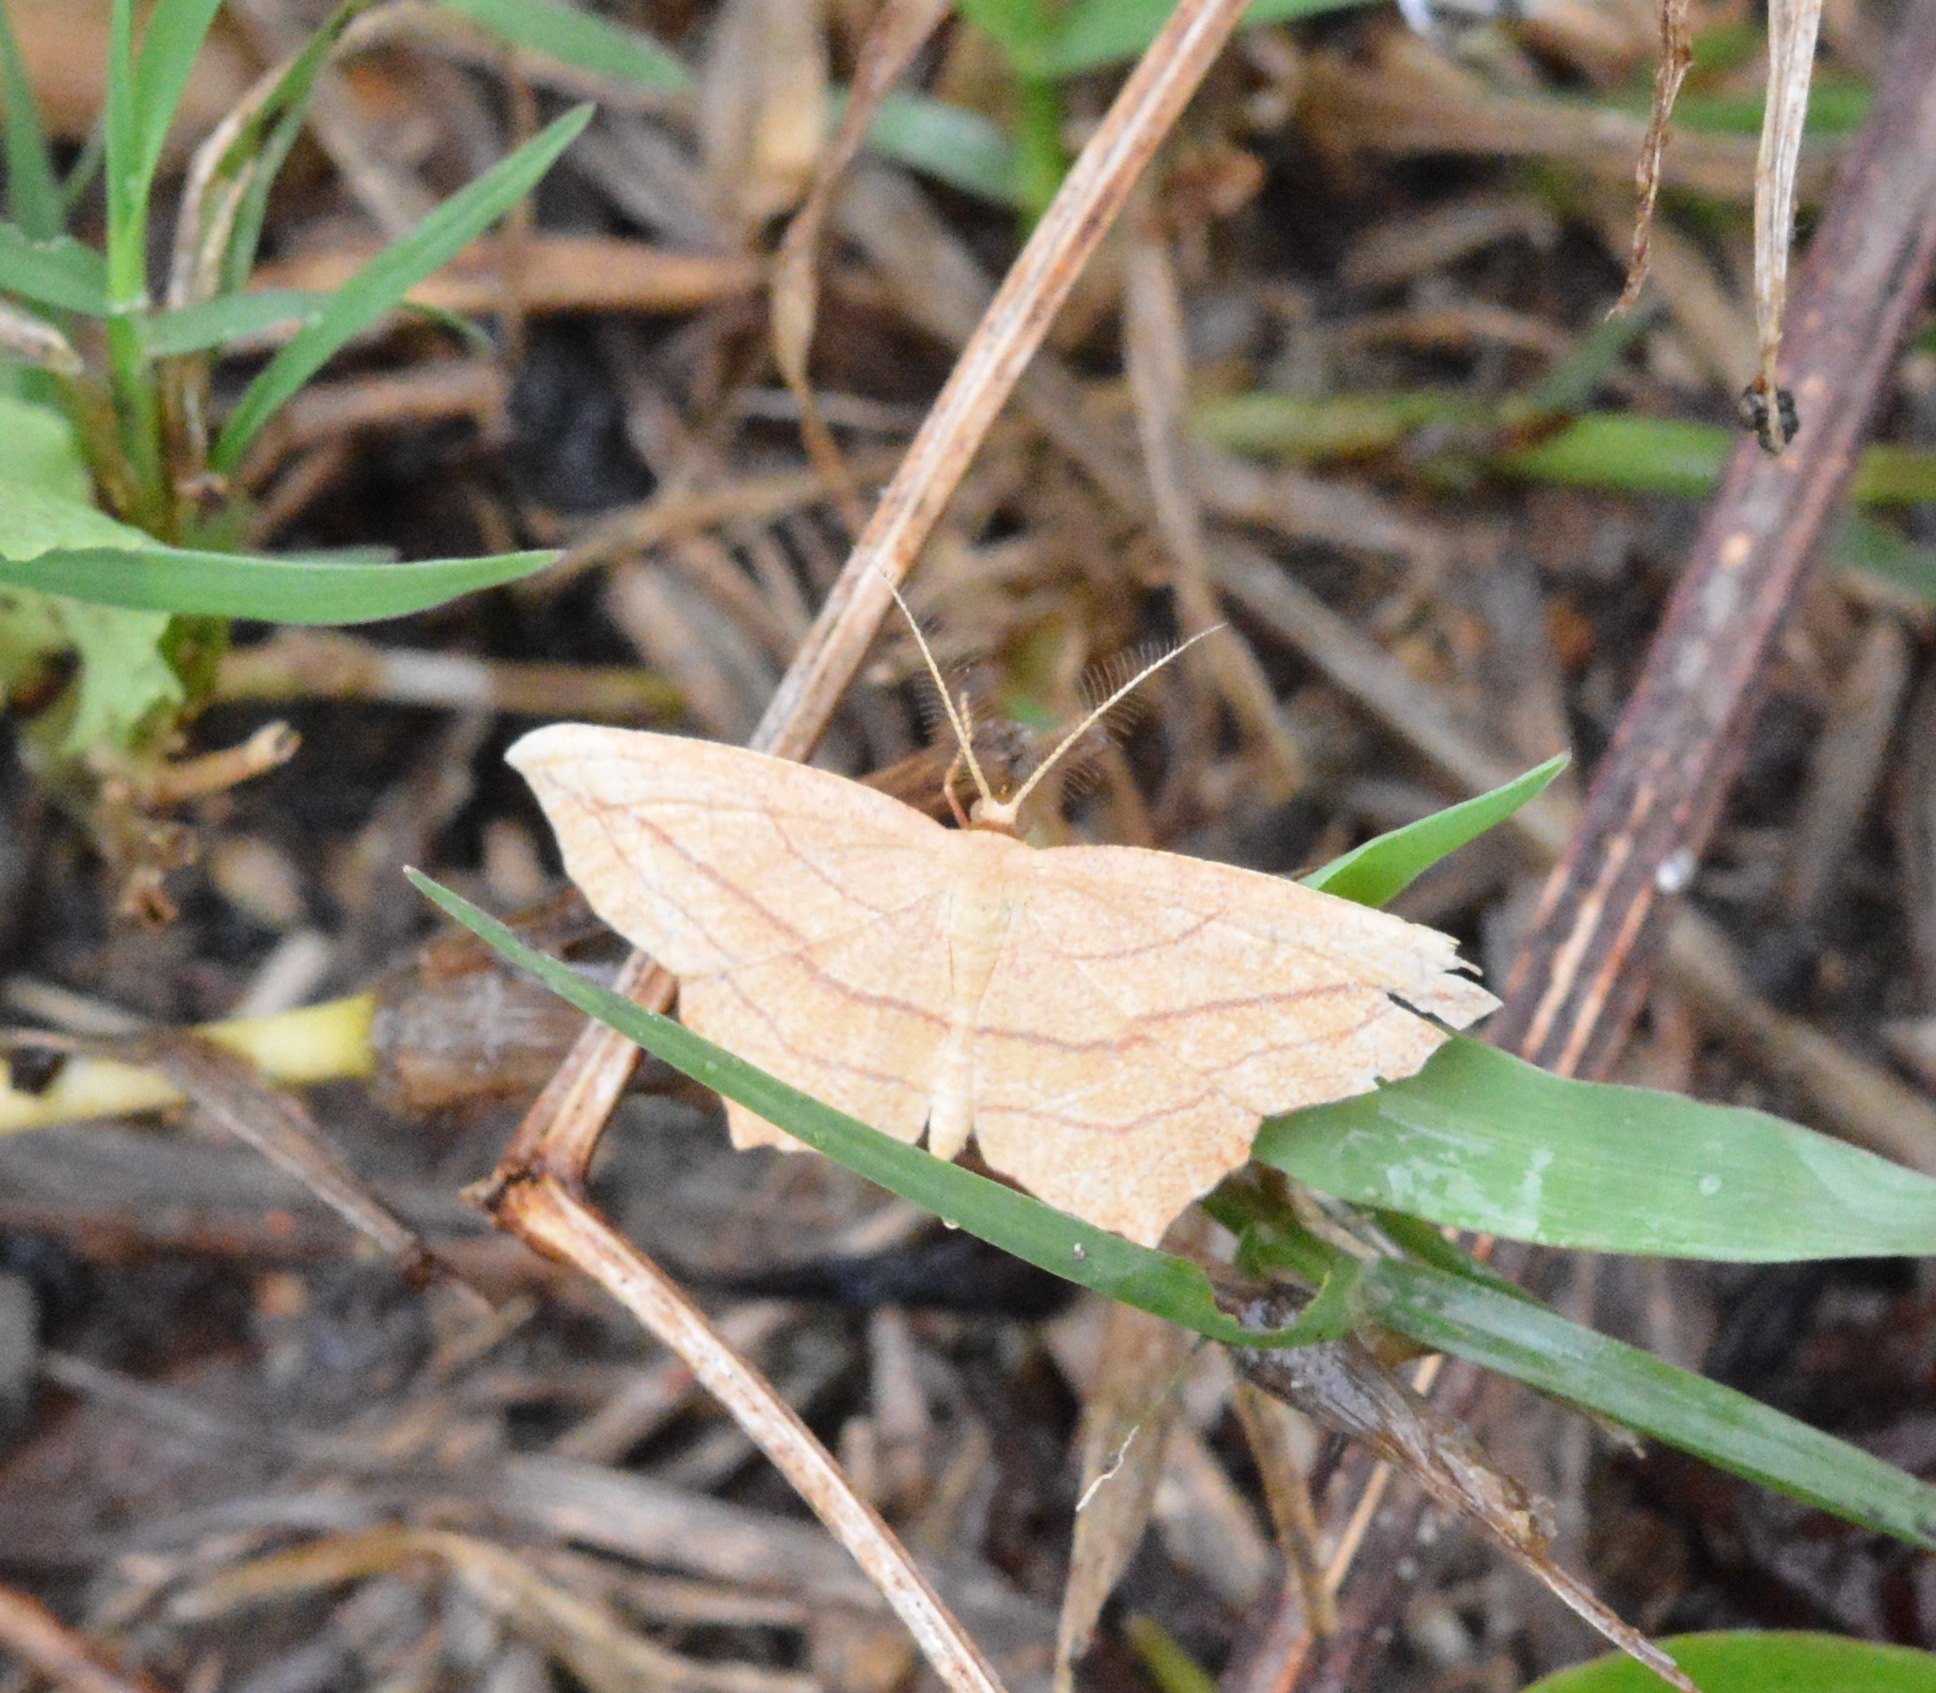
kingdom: Animalia
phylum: Arthropoda
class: Insecta
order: Lepidoptera
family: Geometridae
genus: Timandra
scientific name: Timandra amaturaria
